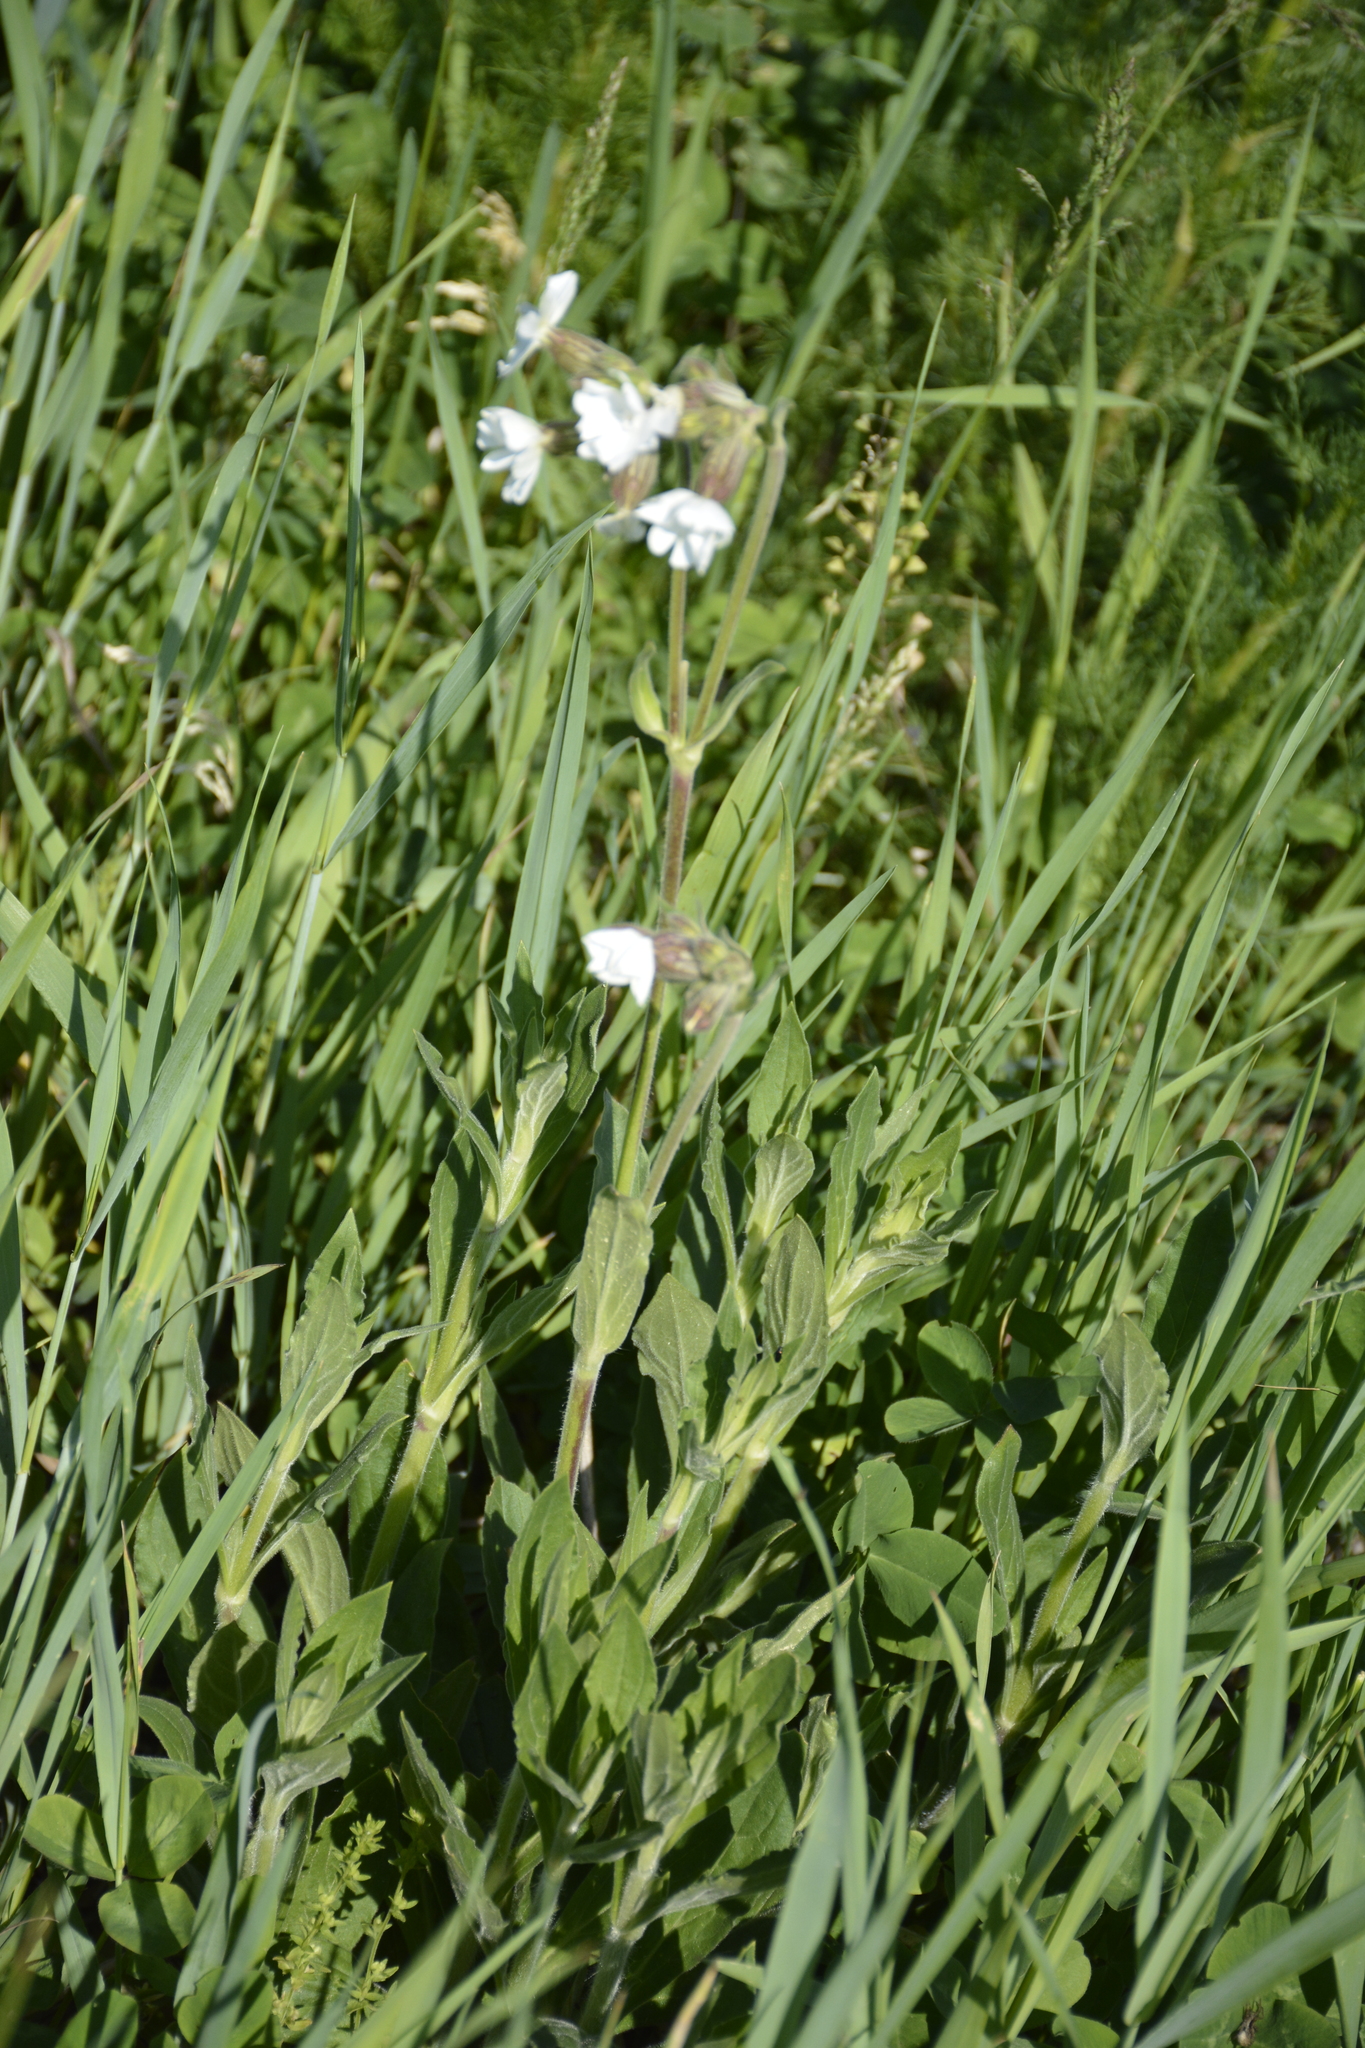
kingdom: Plantae
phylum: Tracheophyta
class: Magnoliopsida
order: Caryophyllales
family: Caryophyllaceae
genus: Silene
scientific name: Silene latifolia
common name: White campion
